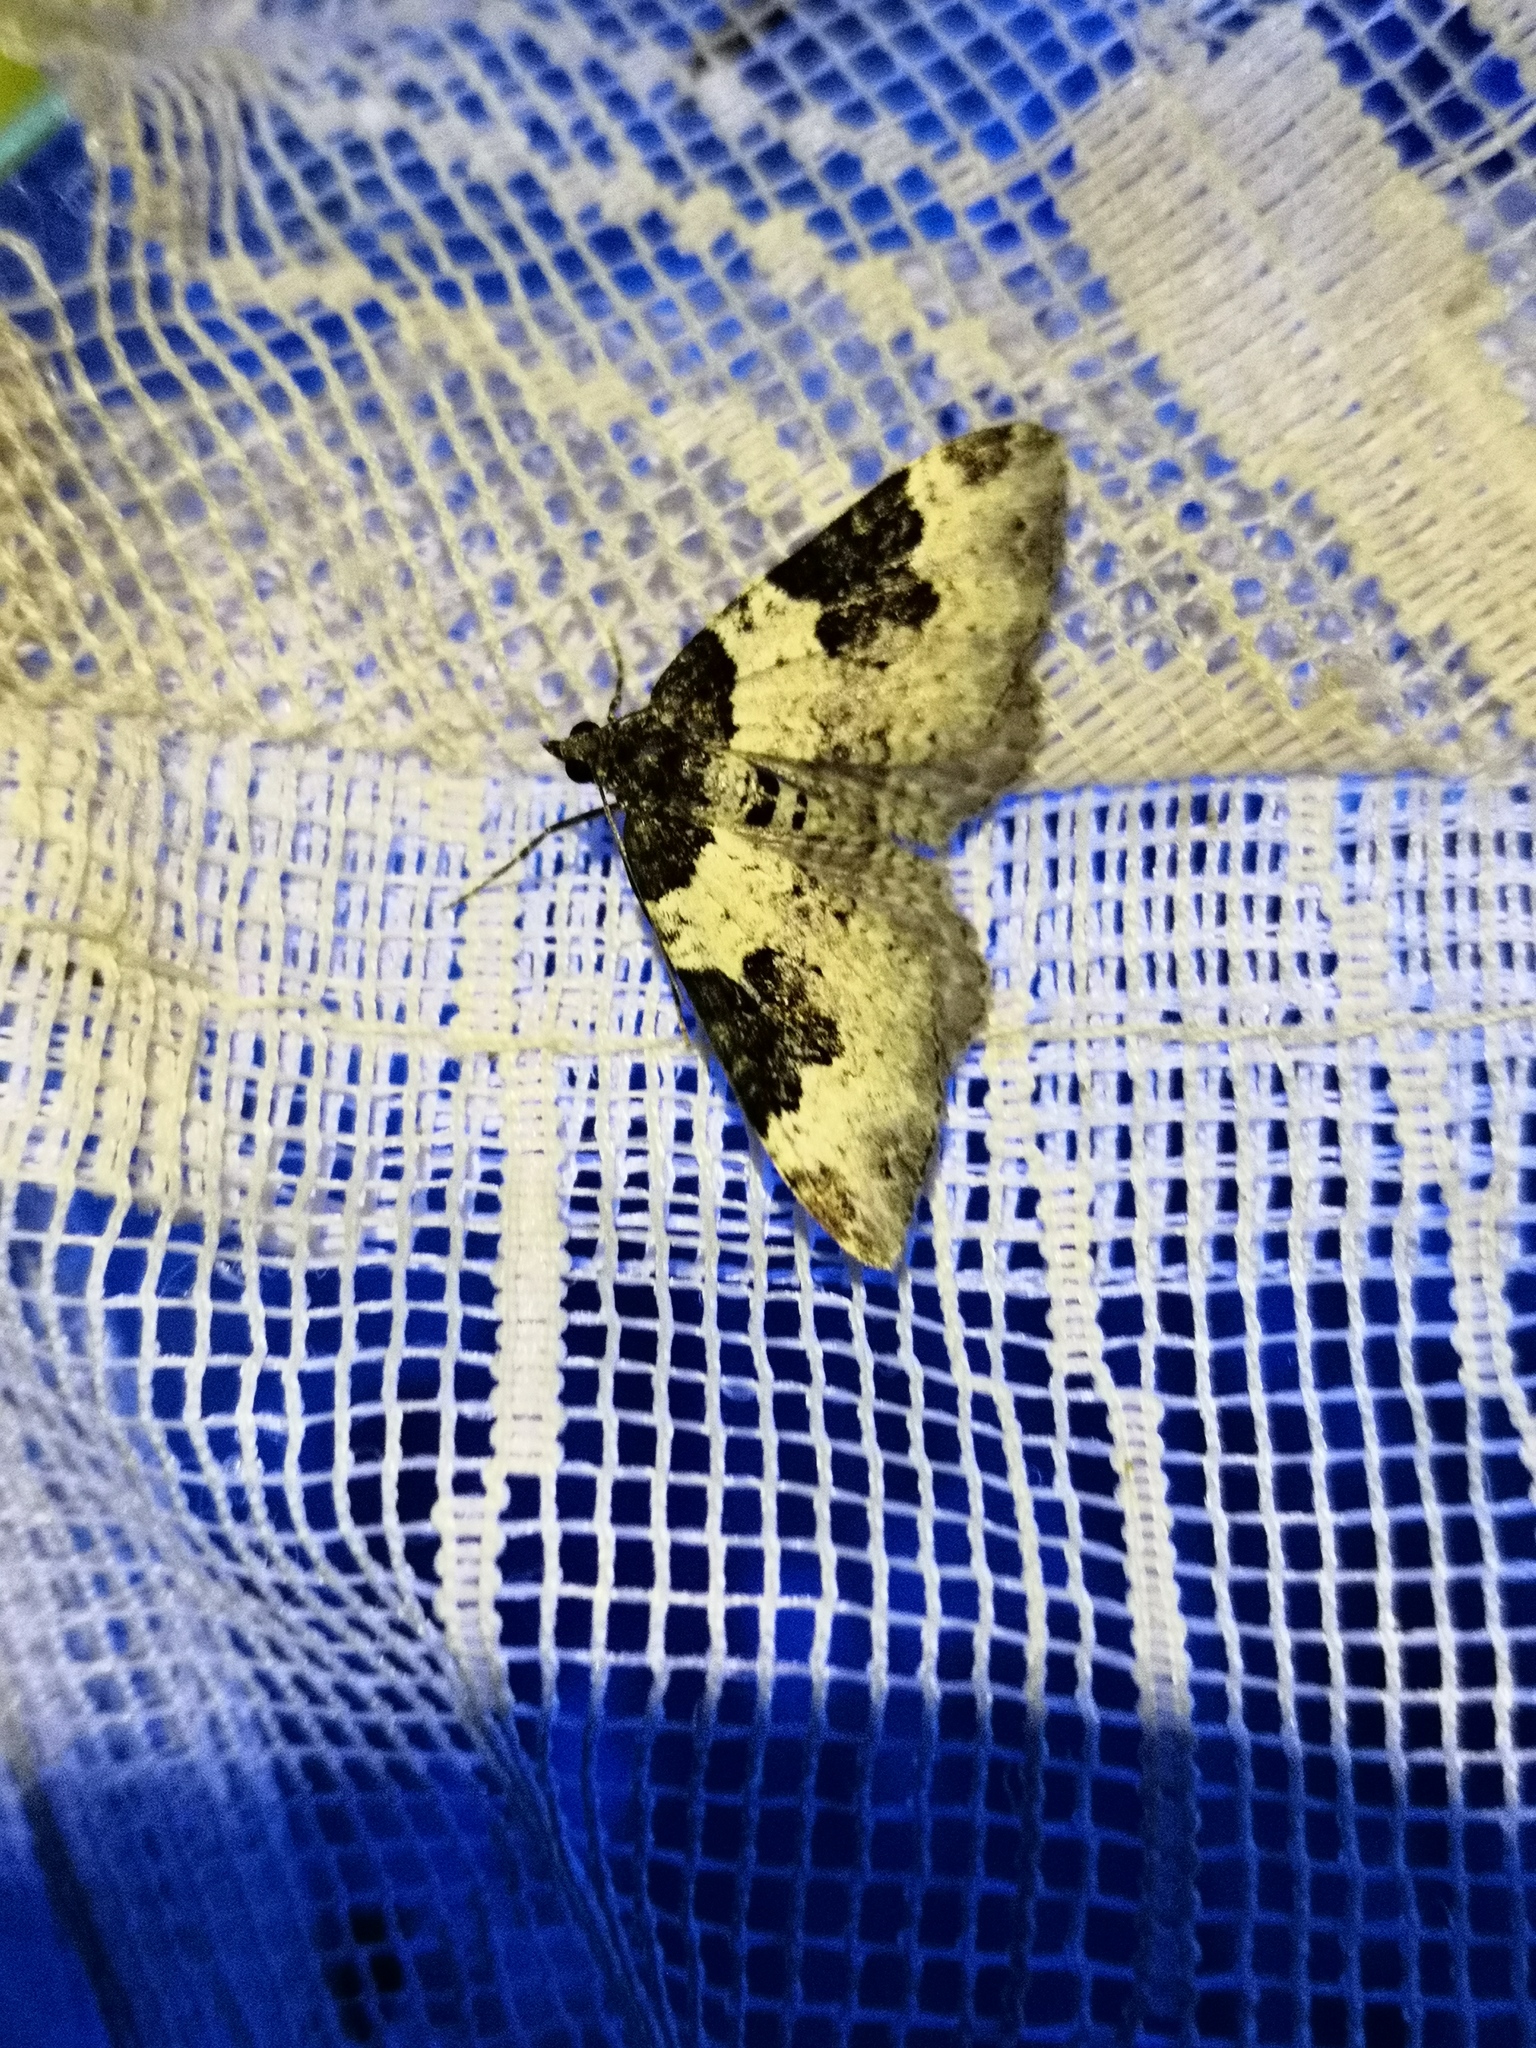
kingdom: Animalia
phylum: Arthropoda
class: Insecta
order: Lepidoptera
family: Geometridae
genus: Xanthorhoe
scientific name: Xanthorhoe fluctuata
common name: Garden carpet
